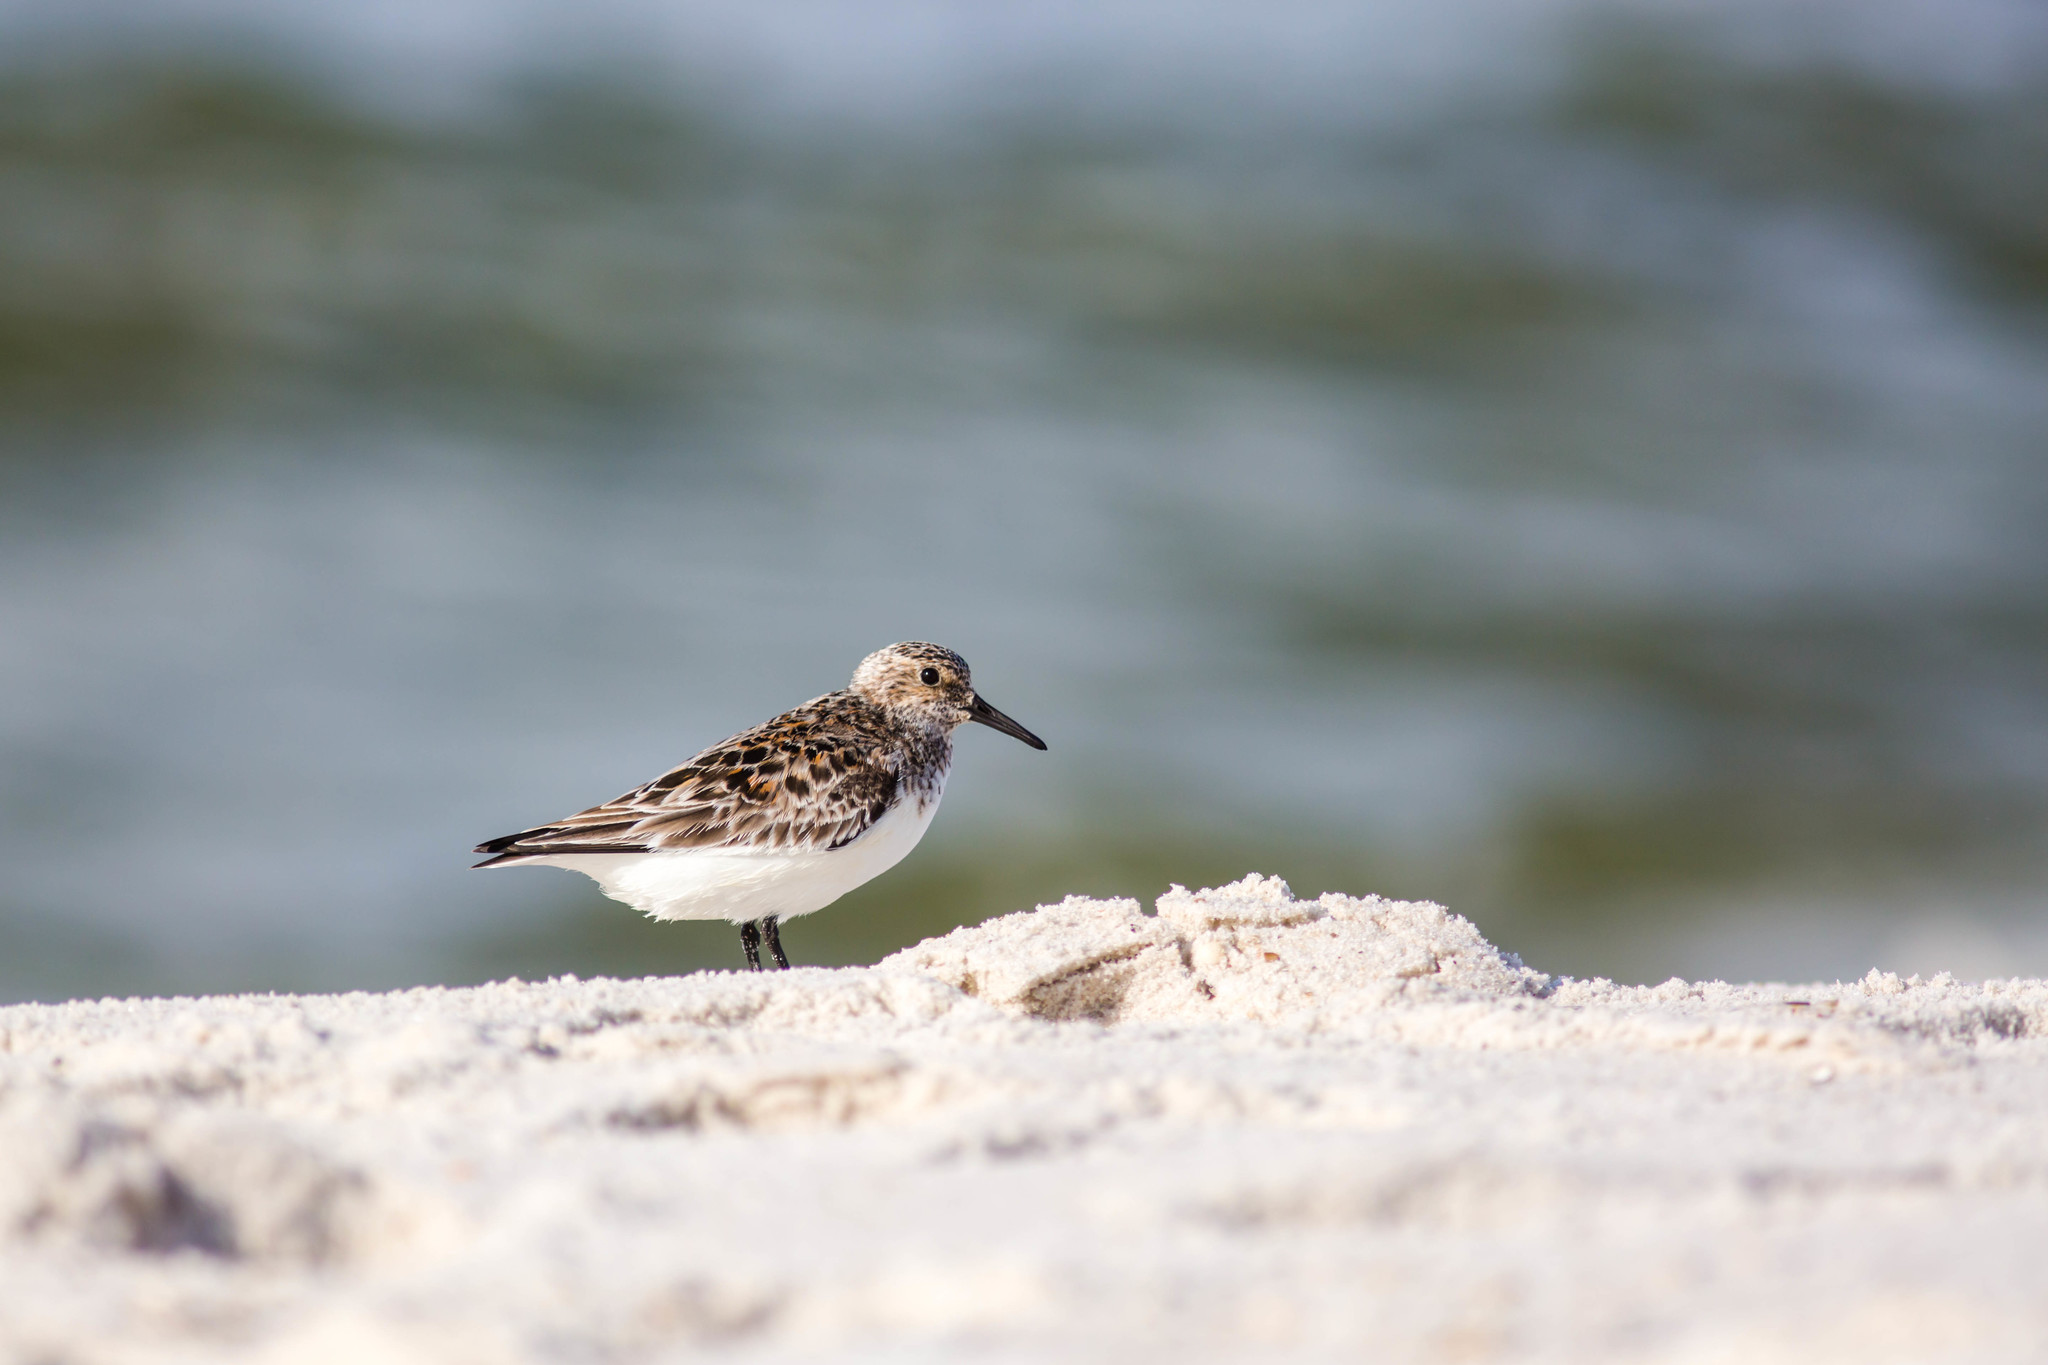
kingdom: Animalia
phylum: Chordata
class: Aves
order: Charadriiformes
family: Scolopacidae
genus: Calidris
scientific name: Calidris alba
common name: Sanderling
